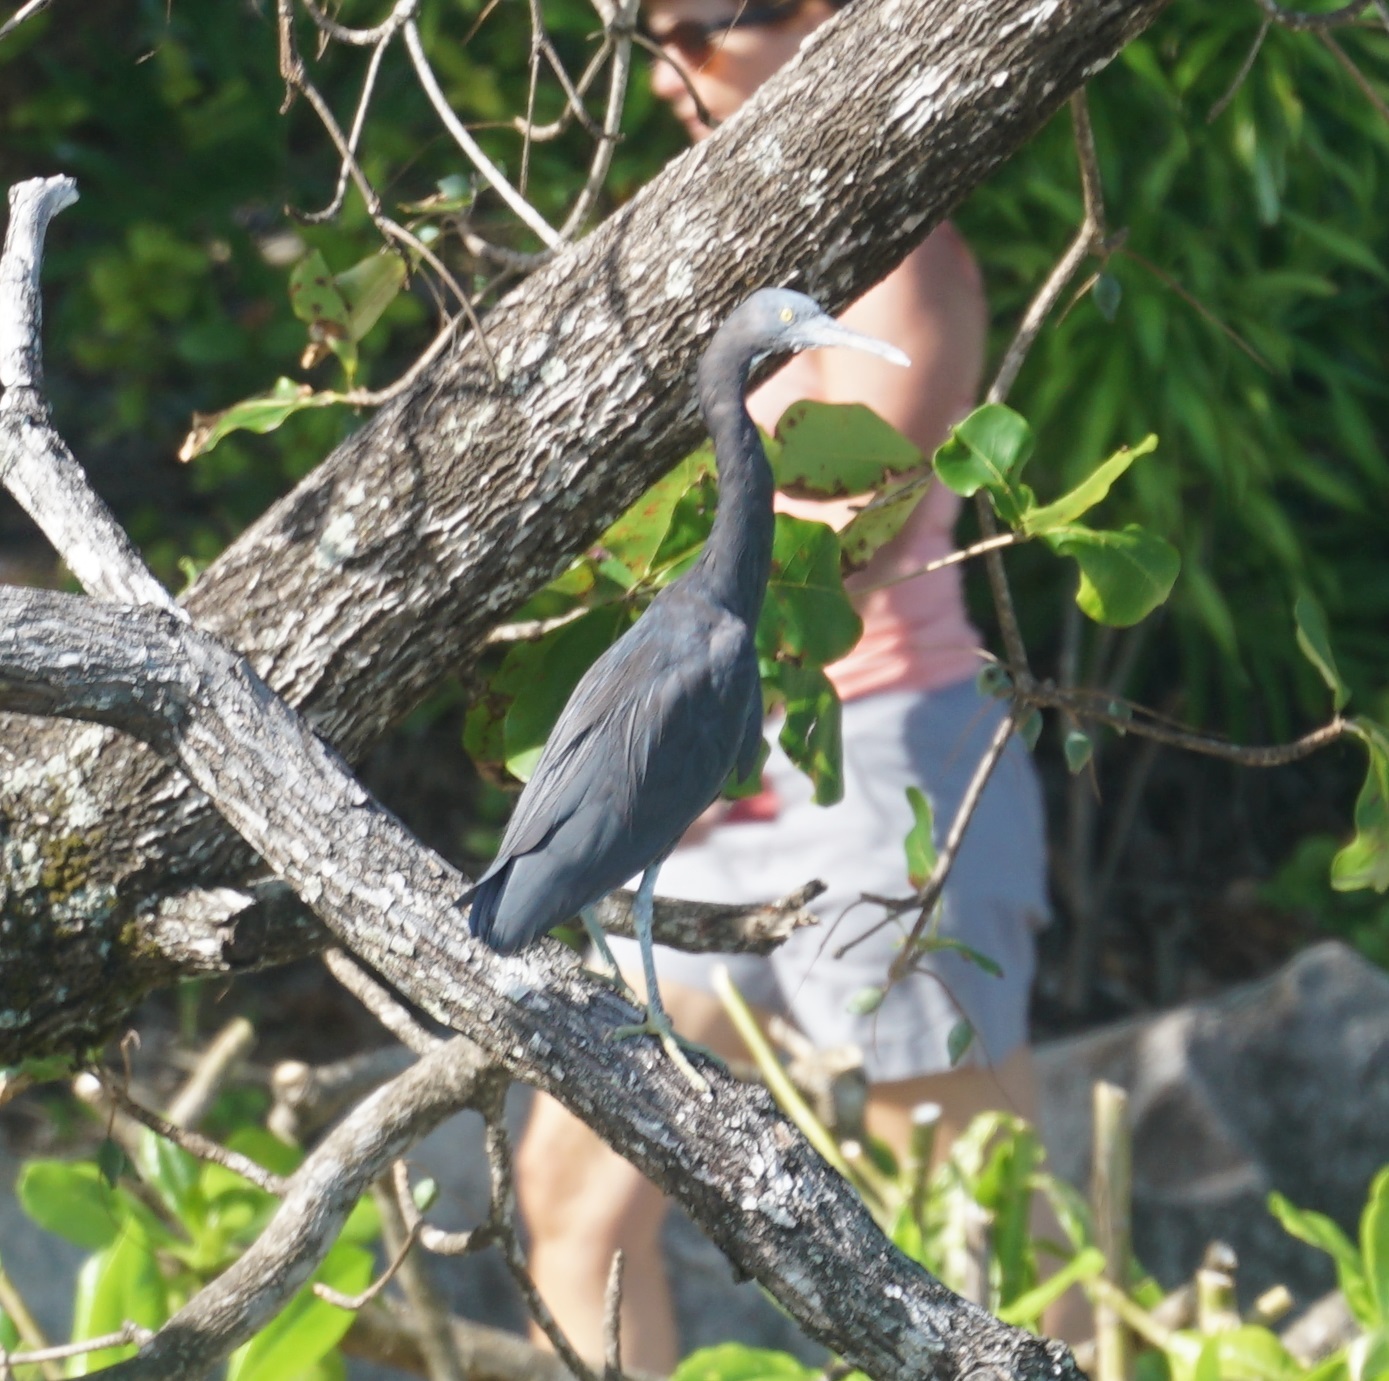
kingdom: Animalia
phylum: Chordata
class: Aves
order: Pelecaniformes
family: Ardeidae
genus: Egretta
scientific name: Egretta sacra
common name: Pacific reef heron
